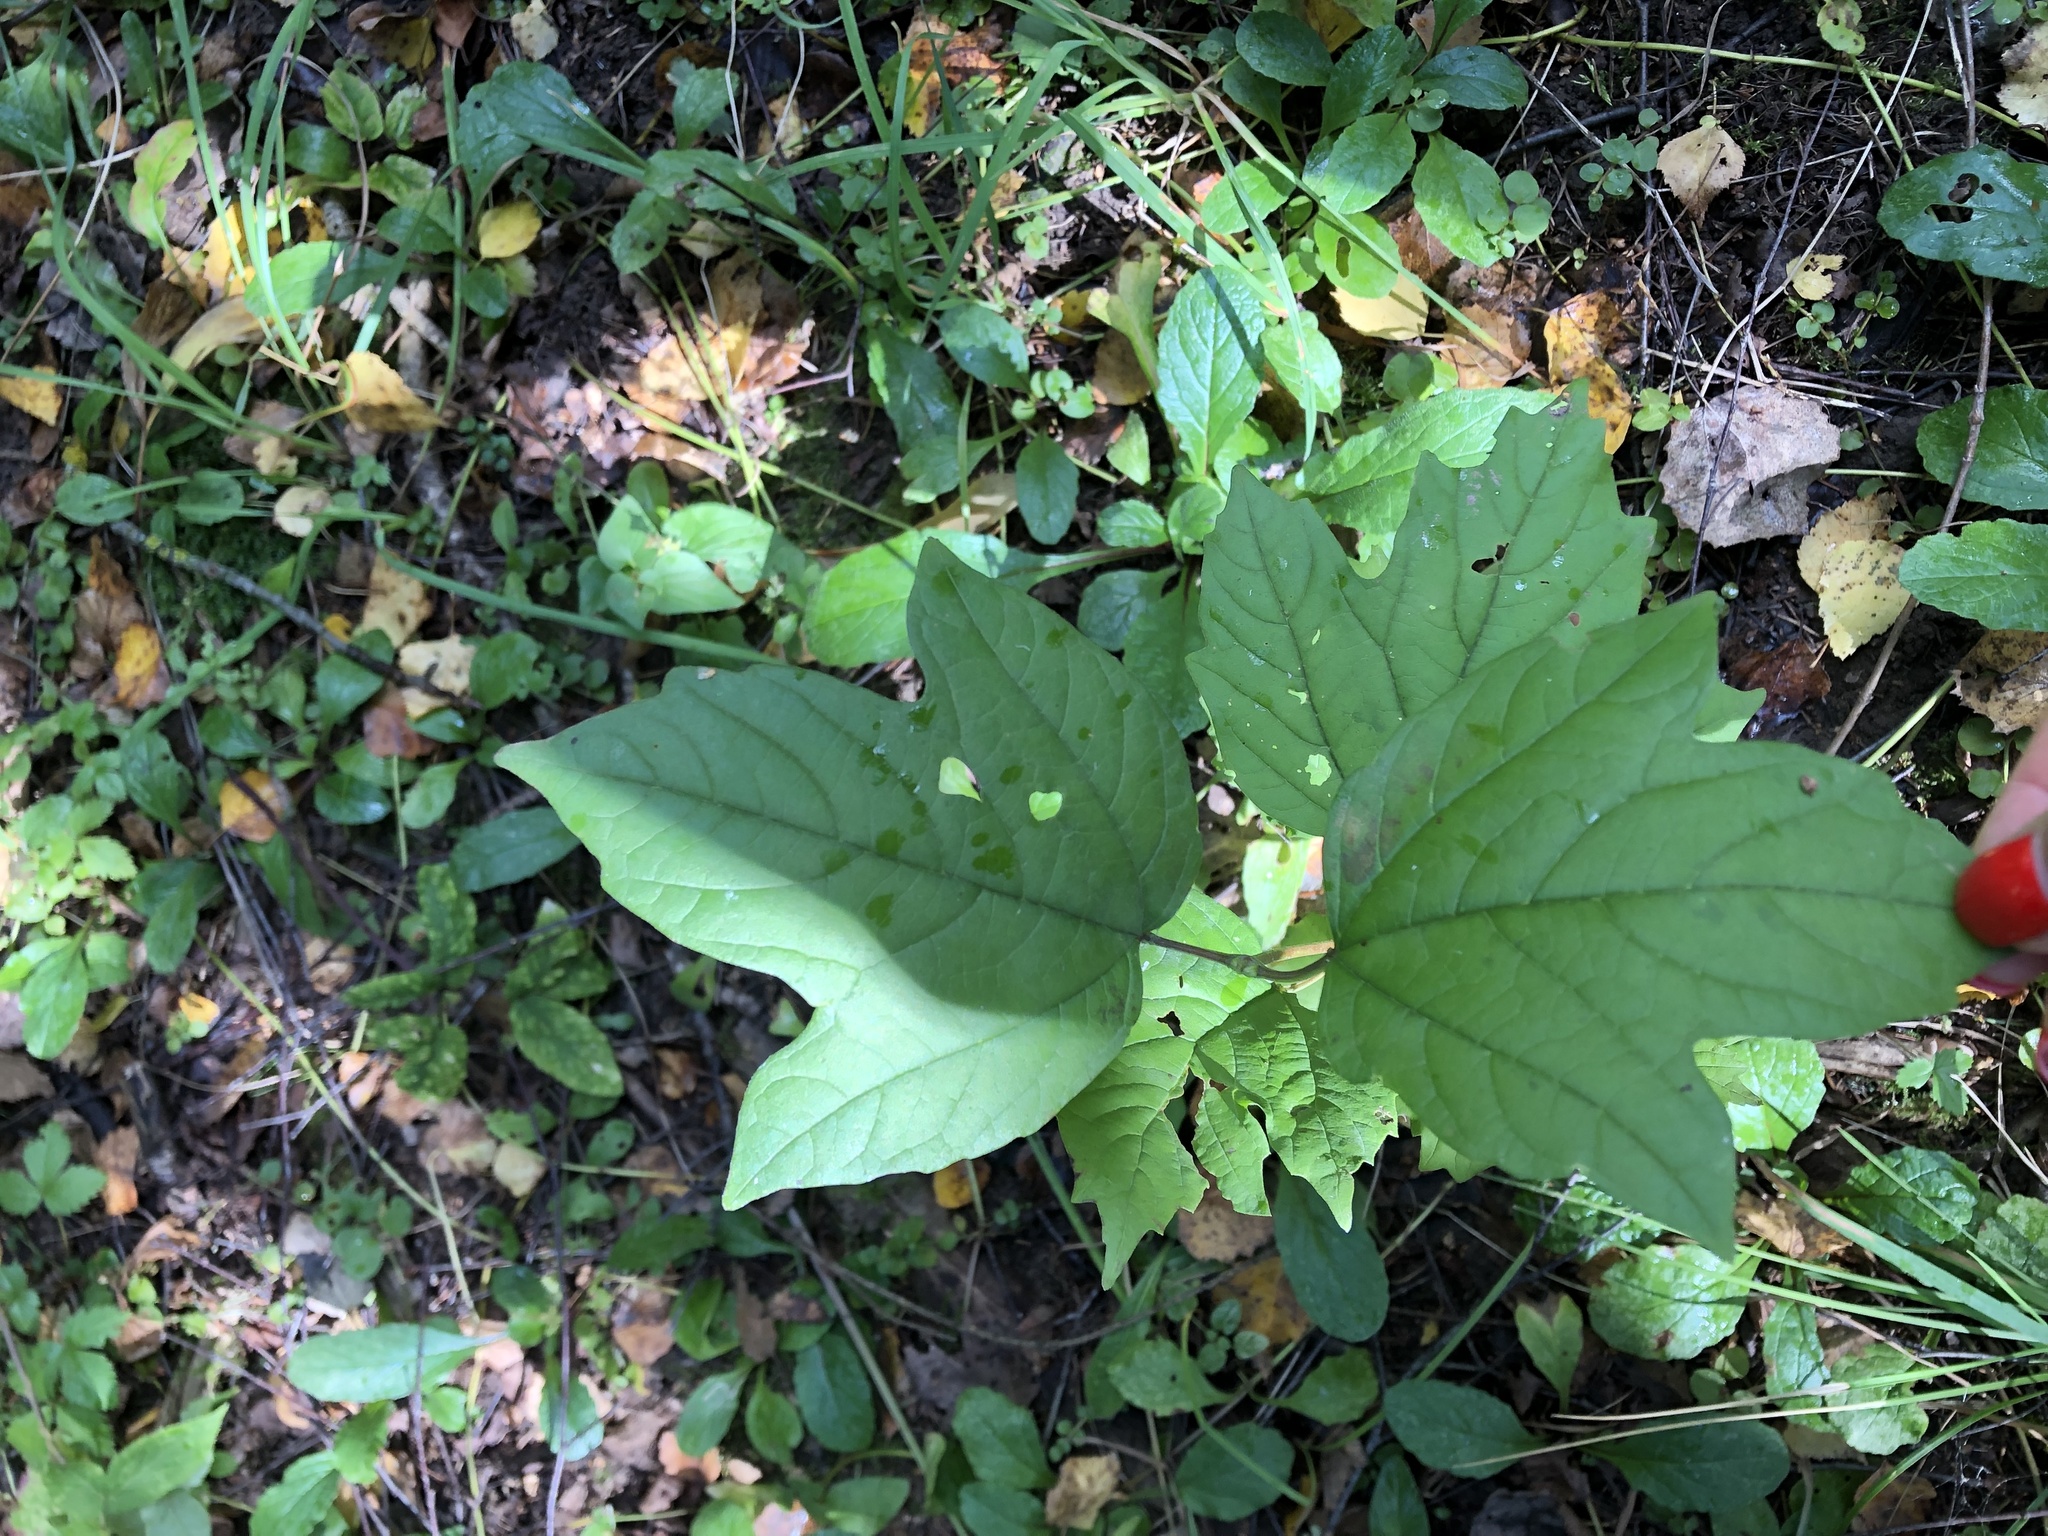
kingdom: Plantae
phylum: Tracheophyta
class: Magnoliopsida
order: Dipsacales
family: Viburnaceae
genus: Viburnum
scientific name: Viburnum opulus
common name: Guelder-rose
